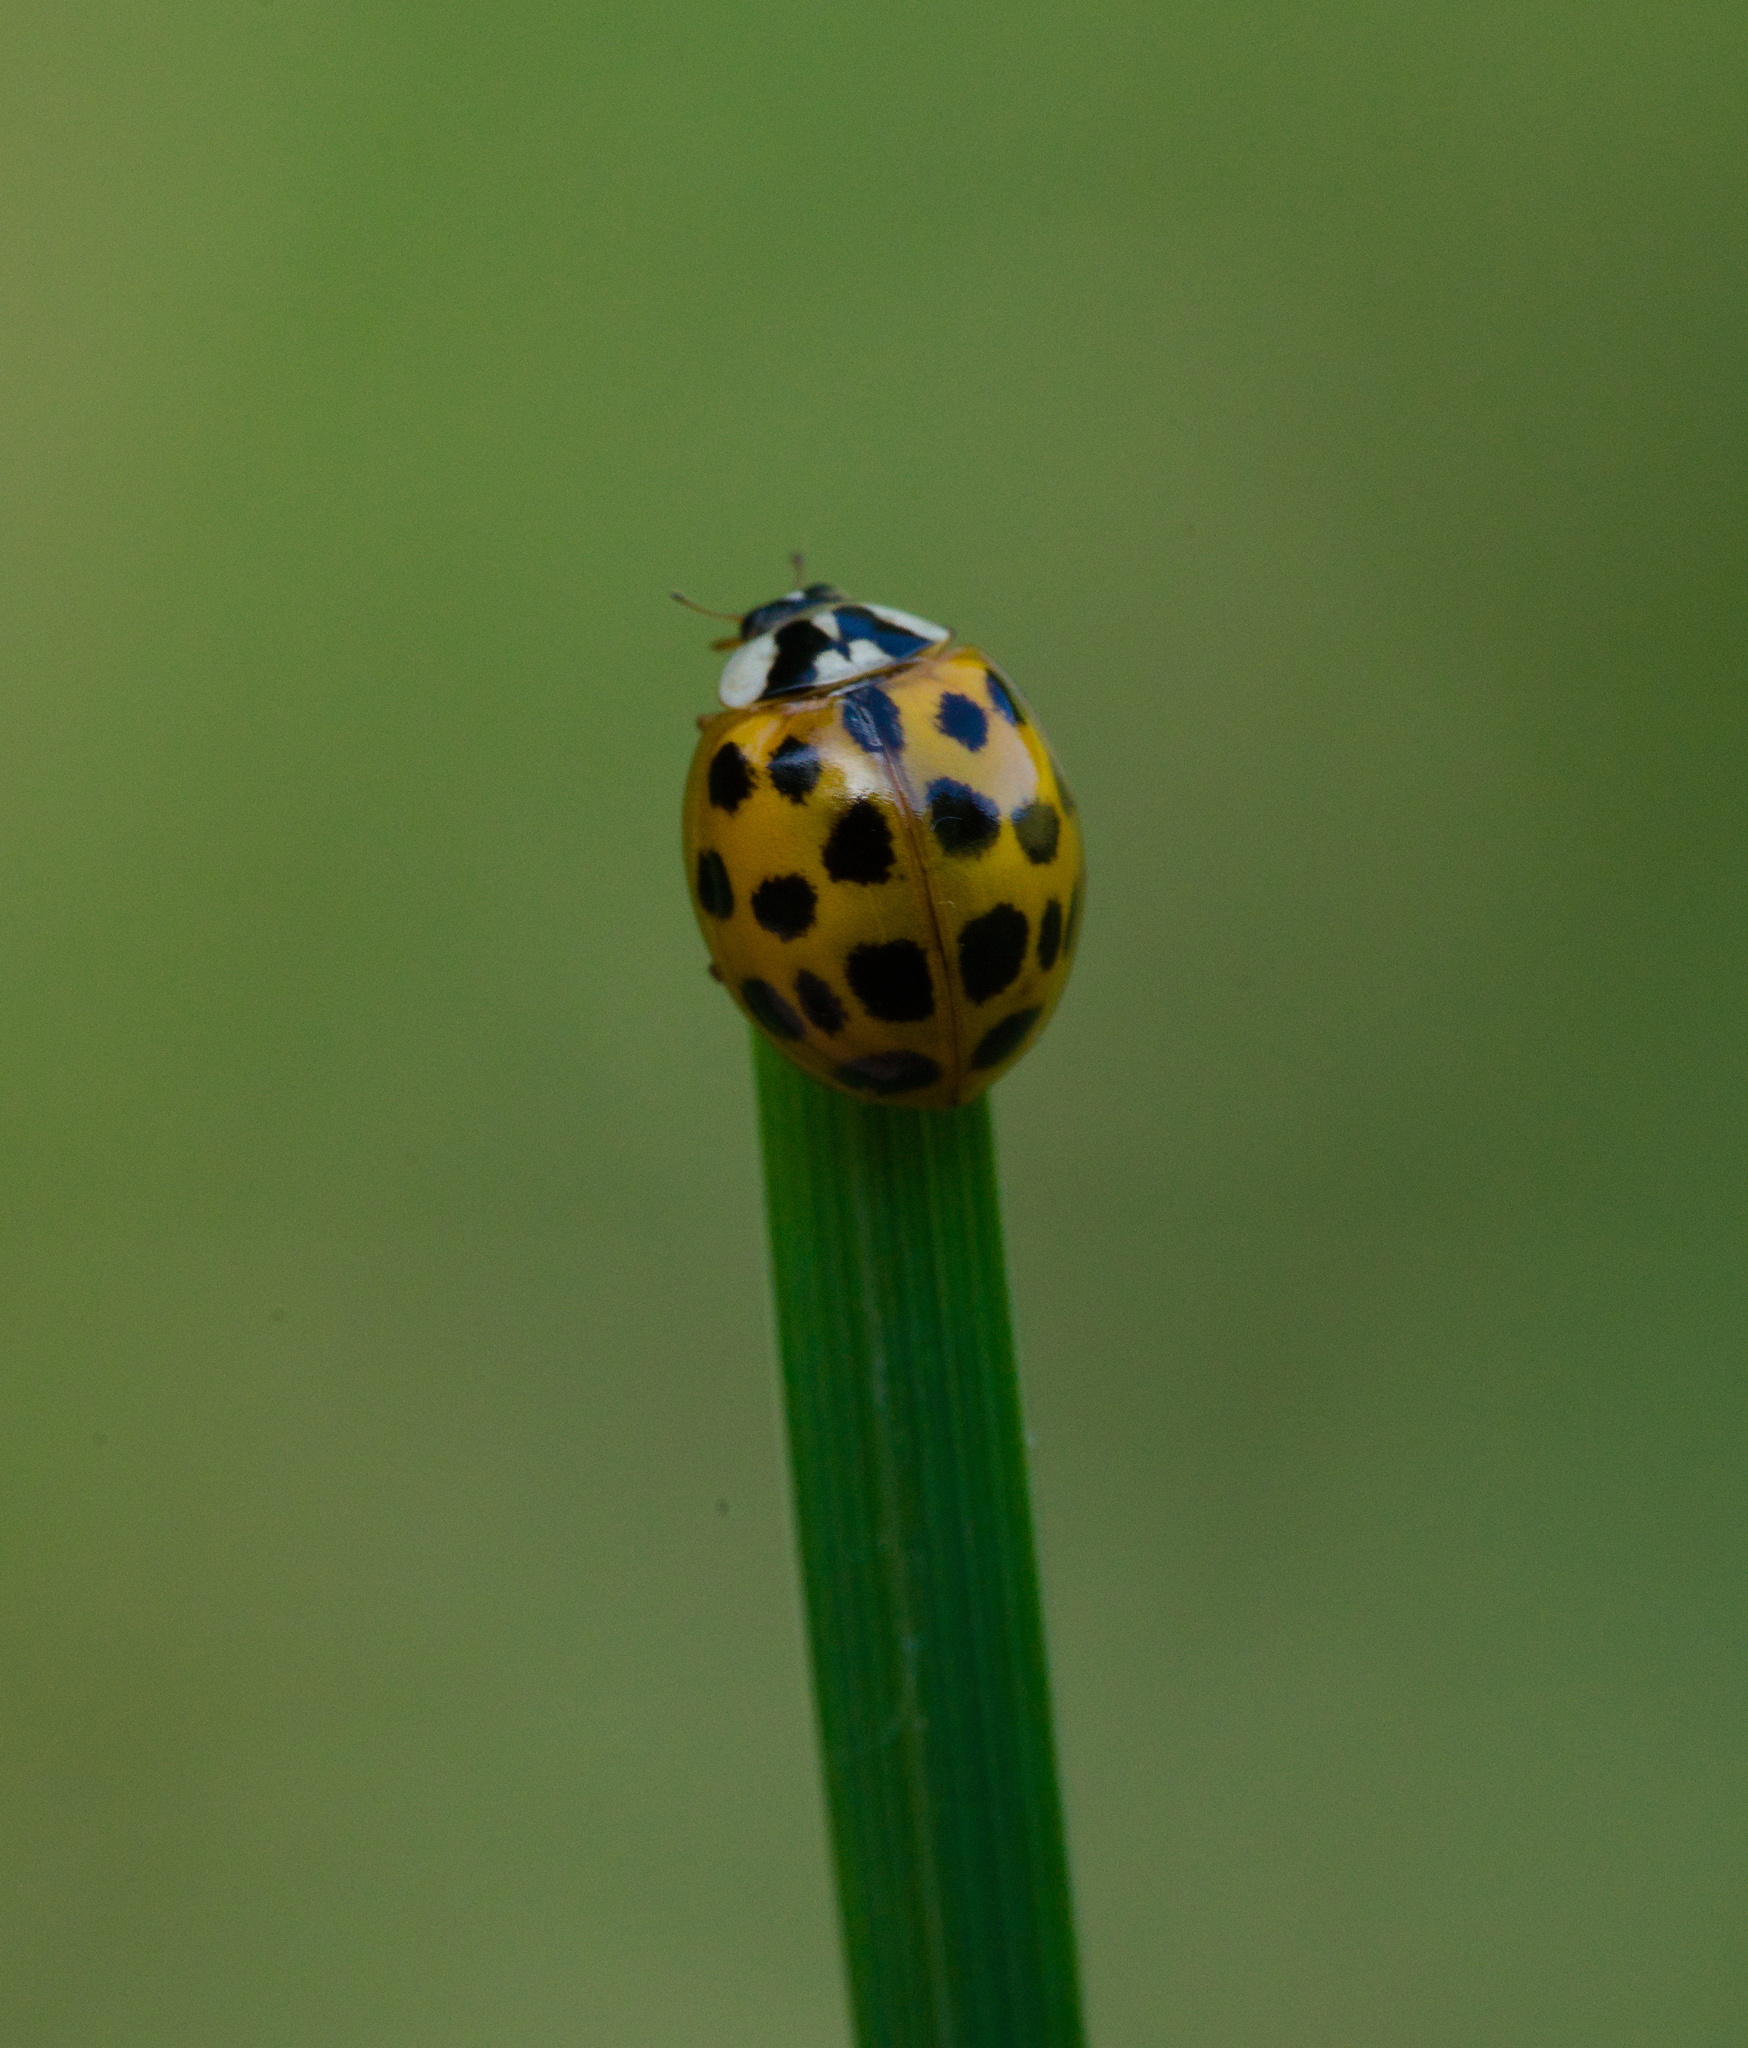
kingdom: Animalia
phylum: Arthropoda
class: Insecta
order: Coleoptera
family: Coccinellidae
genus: Harmonia
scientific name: Harmonia axyridis
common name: Harlequin ladybird
